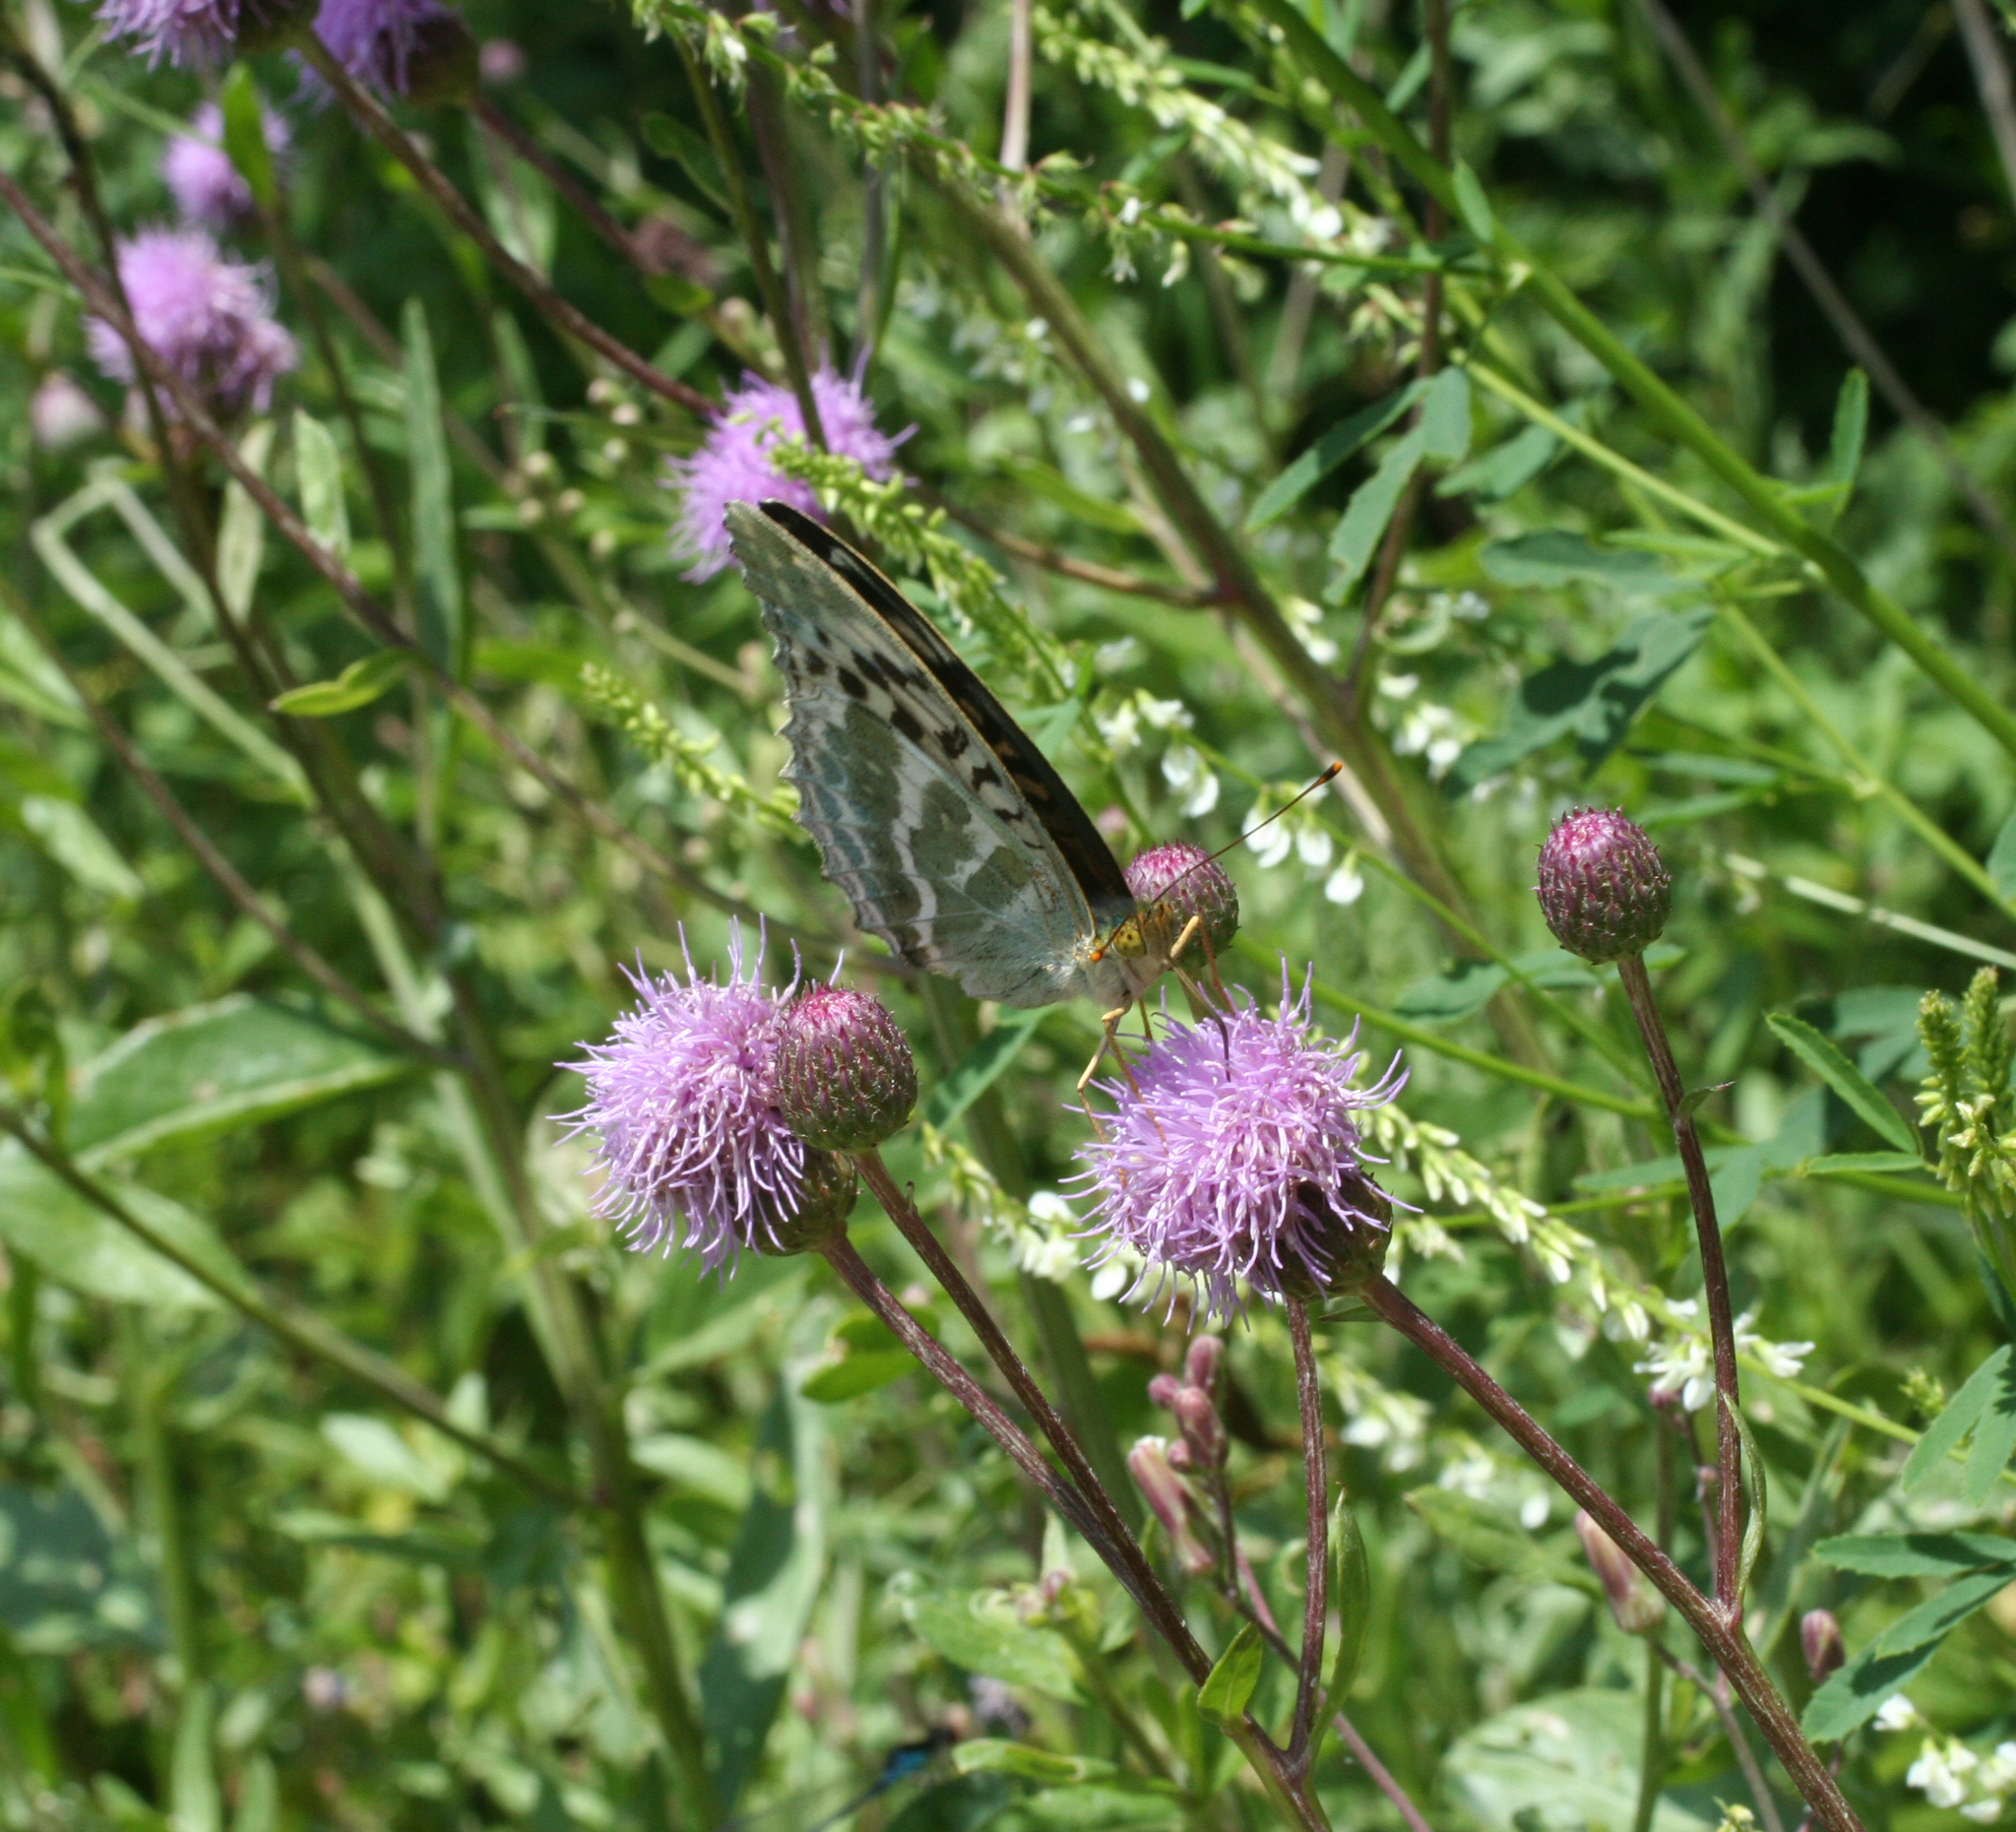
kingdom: Animalia
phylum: Arthropoda
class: Insecta
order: Lepidoptera
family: Nymphalidae
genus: Argynnis
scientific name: Argynnis paphia
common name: Silver-washed fritillary
